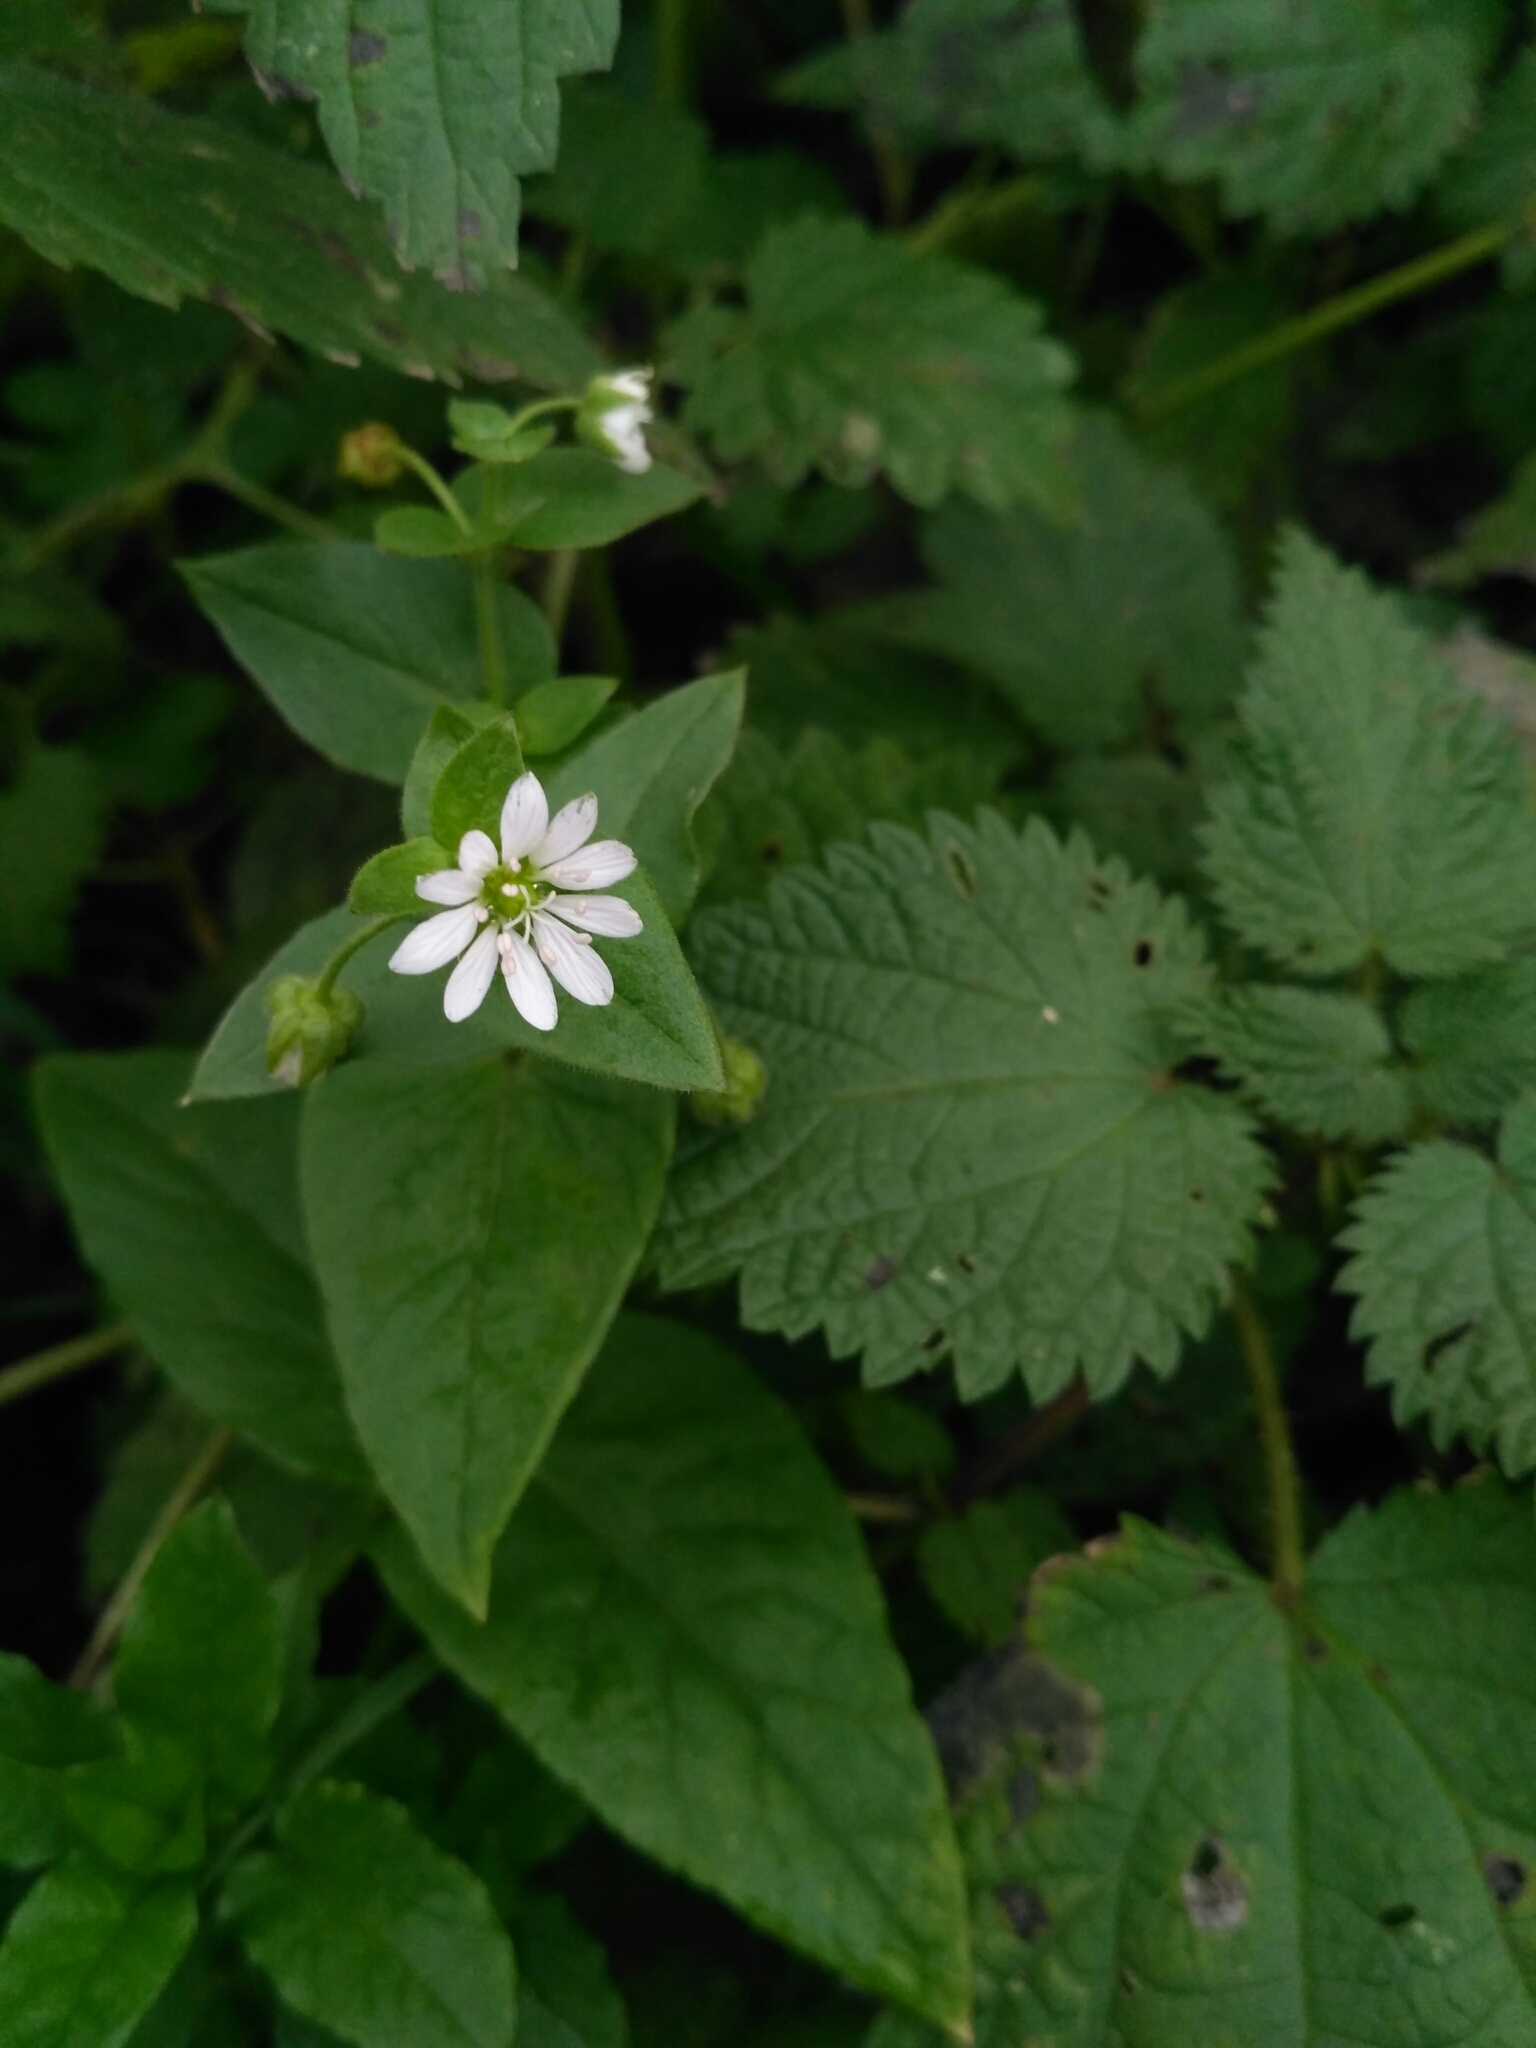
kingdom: Plantae
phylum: Tracheophyta
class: Magnoliopsida
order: Caryophyllales
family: Caryophyllaceae
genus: Stellaria
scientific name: Stellaria aquatica
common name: Water chickweed
